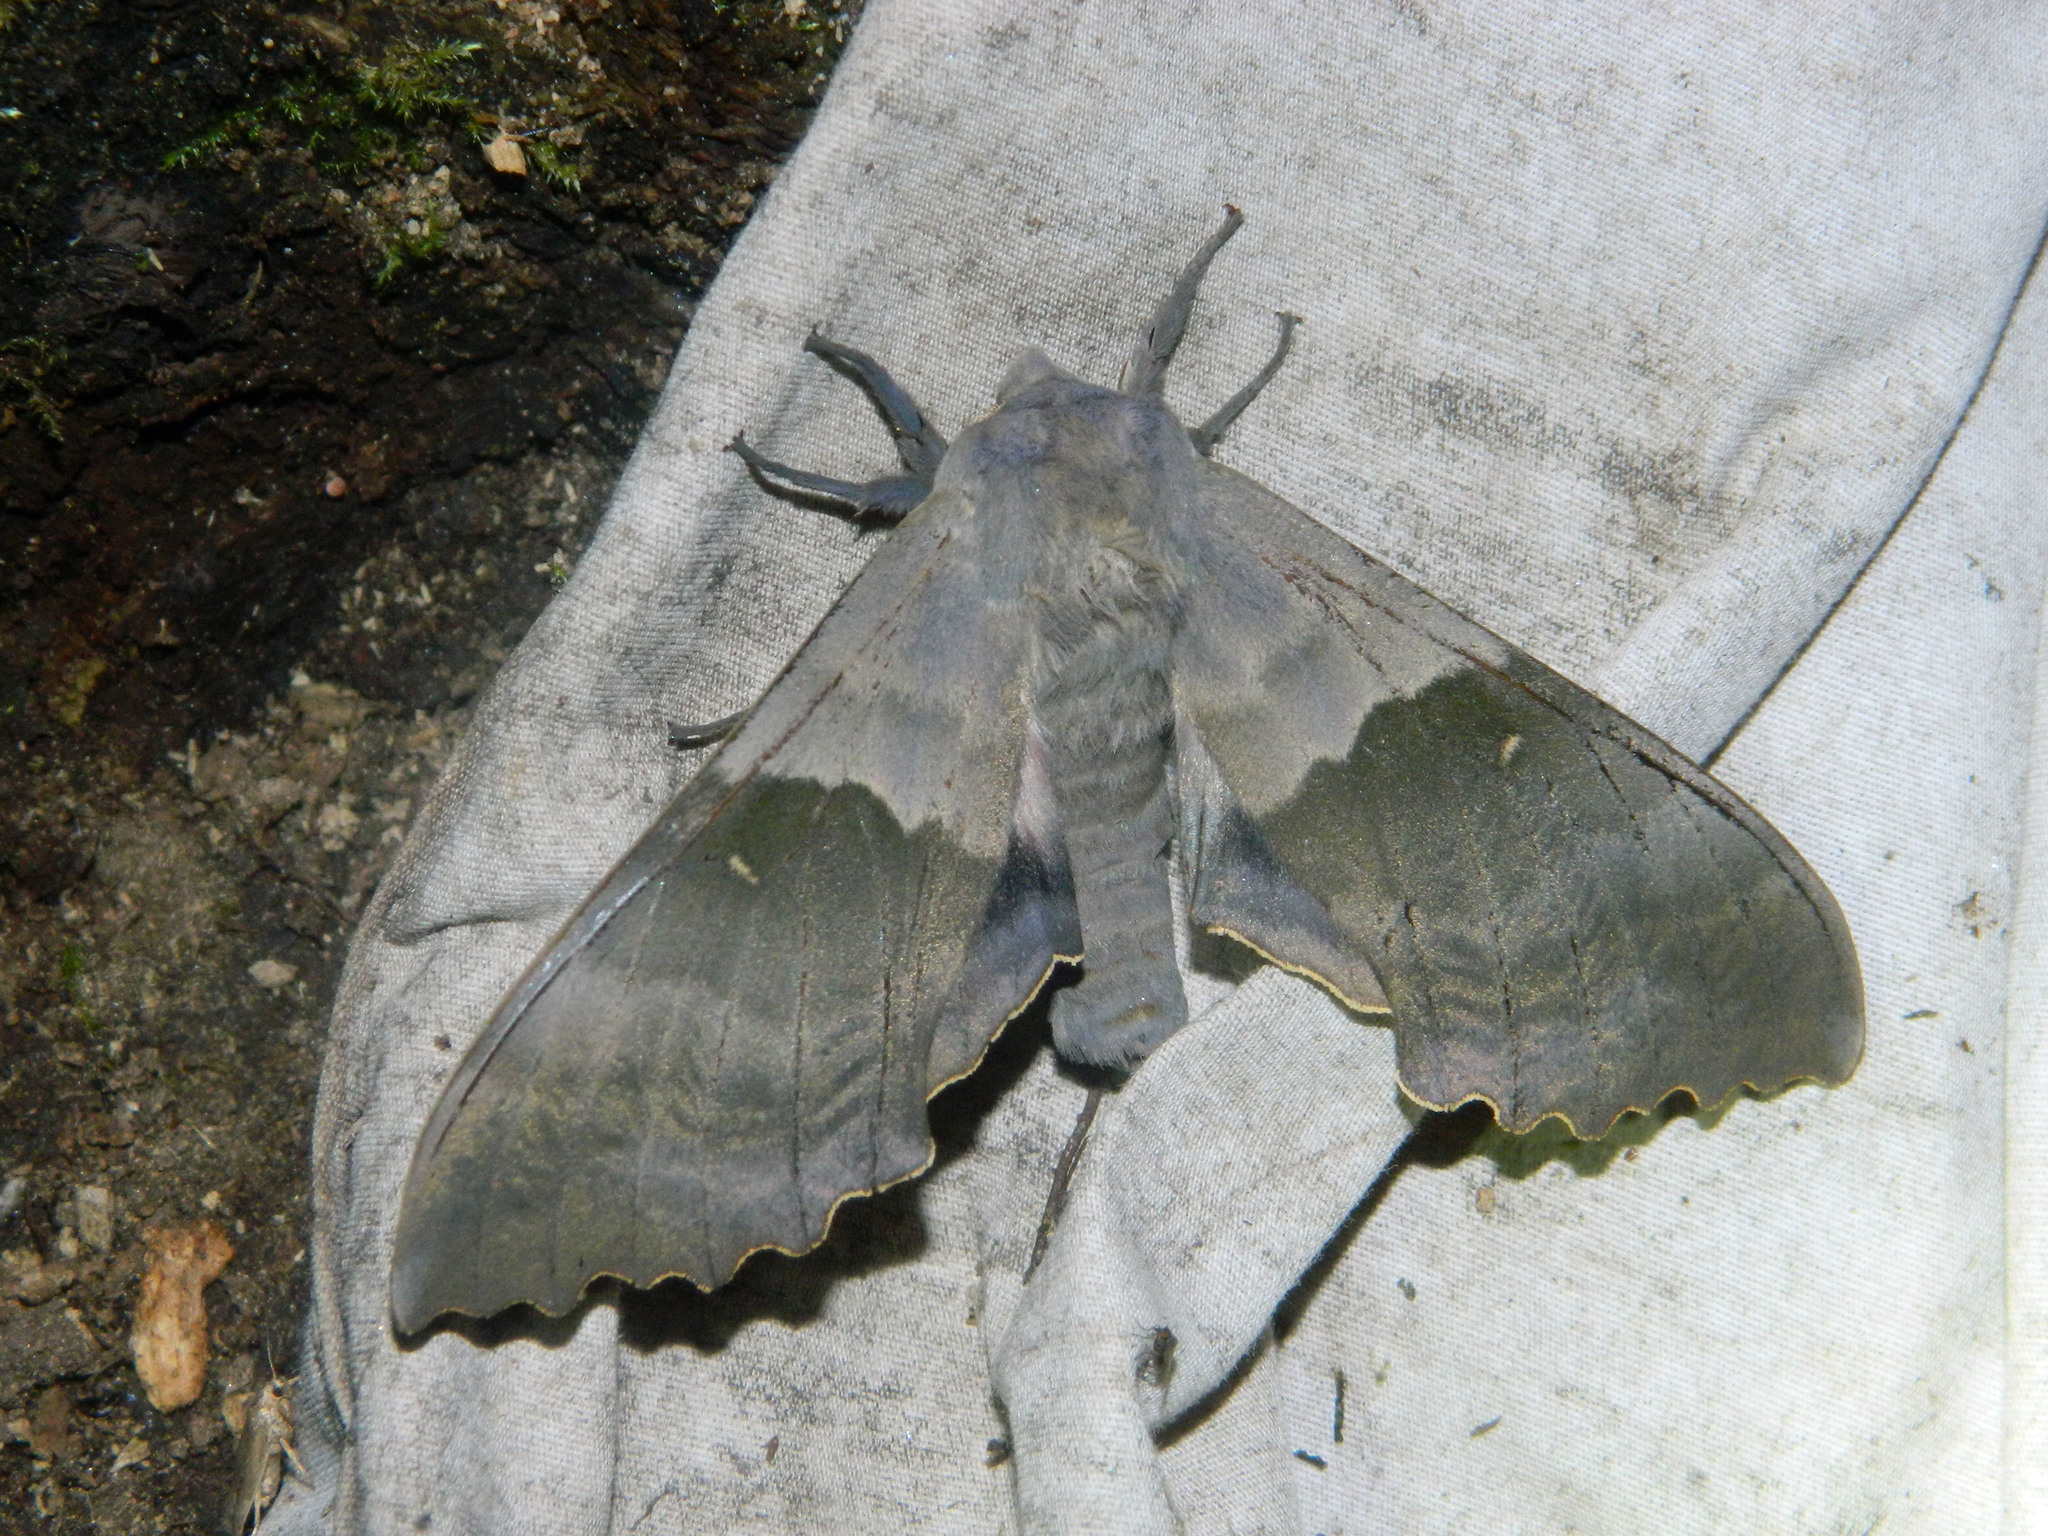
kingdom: Animalia
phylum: Arthropoda
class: Insecta
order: Lepidoptera
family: Sphingidae
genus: Pachysphinx
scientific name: Pachysphinx modesta
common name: Big poplar sphinx
